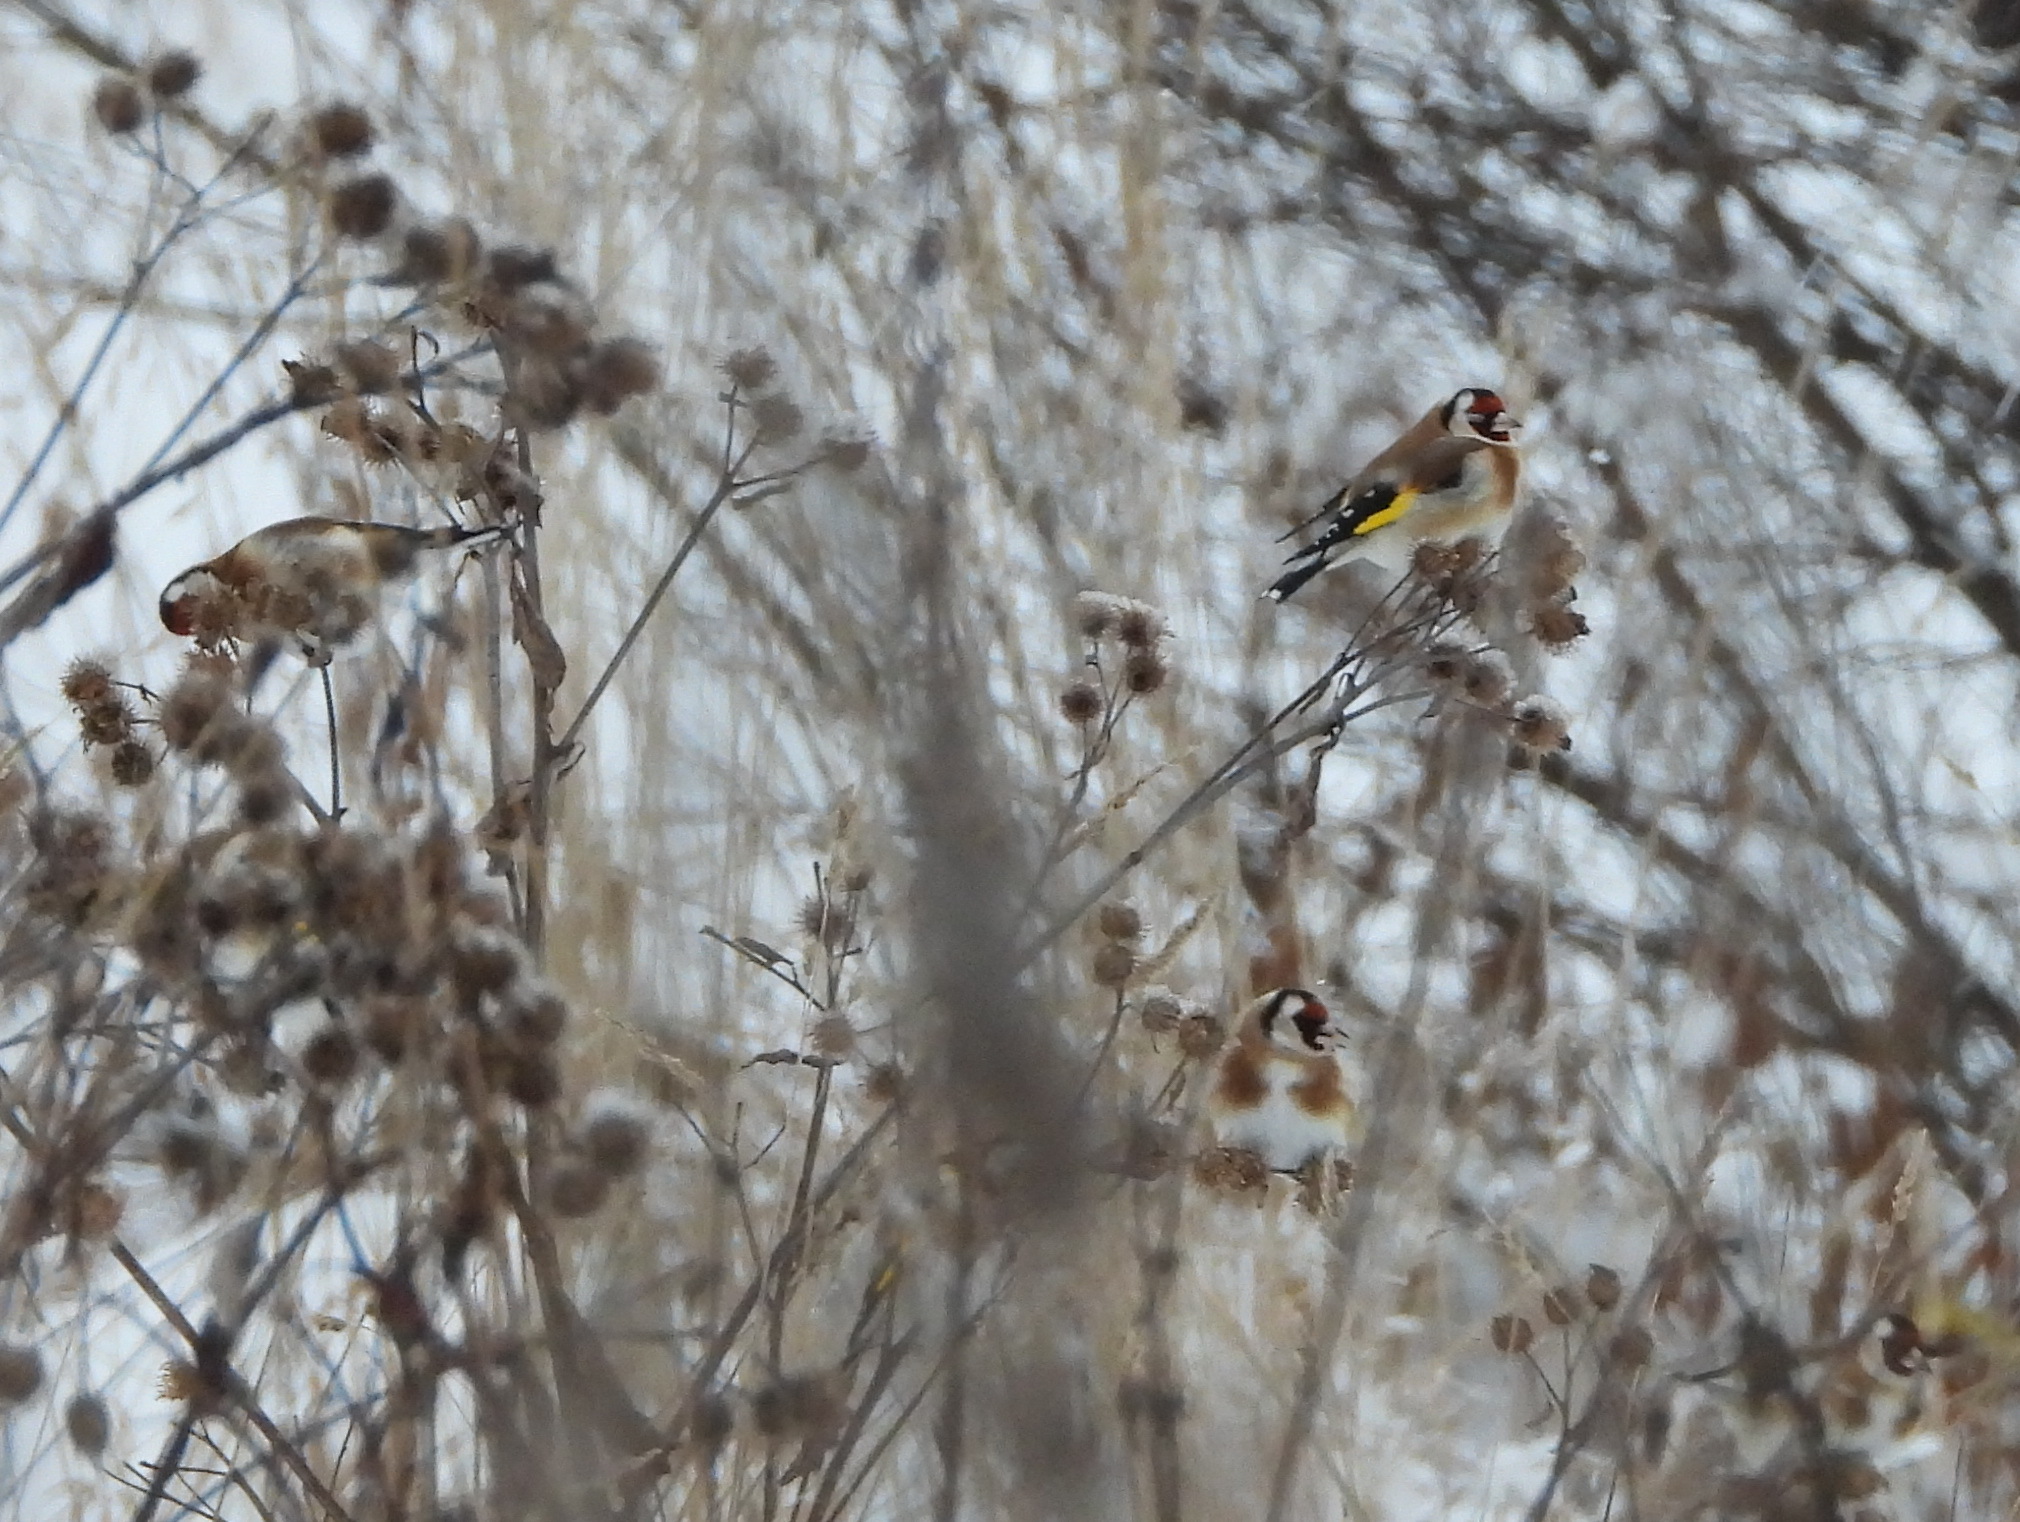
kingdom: Animalia
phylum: Chordata
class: Aves
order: Passeriformes
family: Fringillidae
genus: Carduelis
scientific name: Carduelis carduelis
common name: European goldfinch
